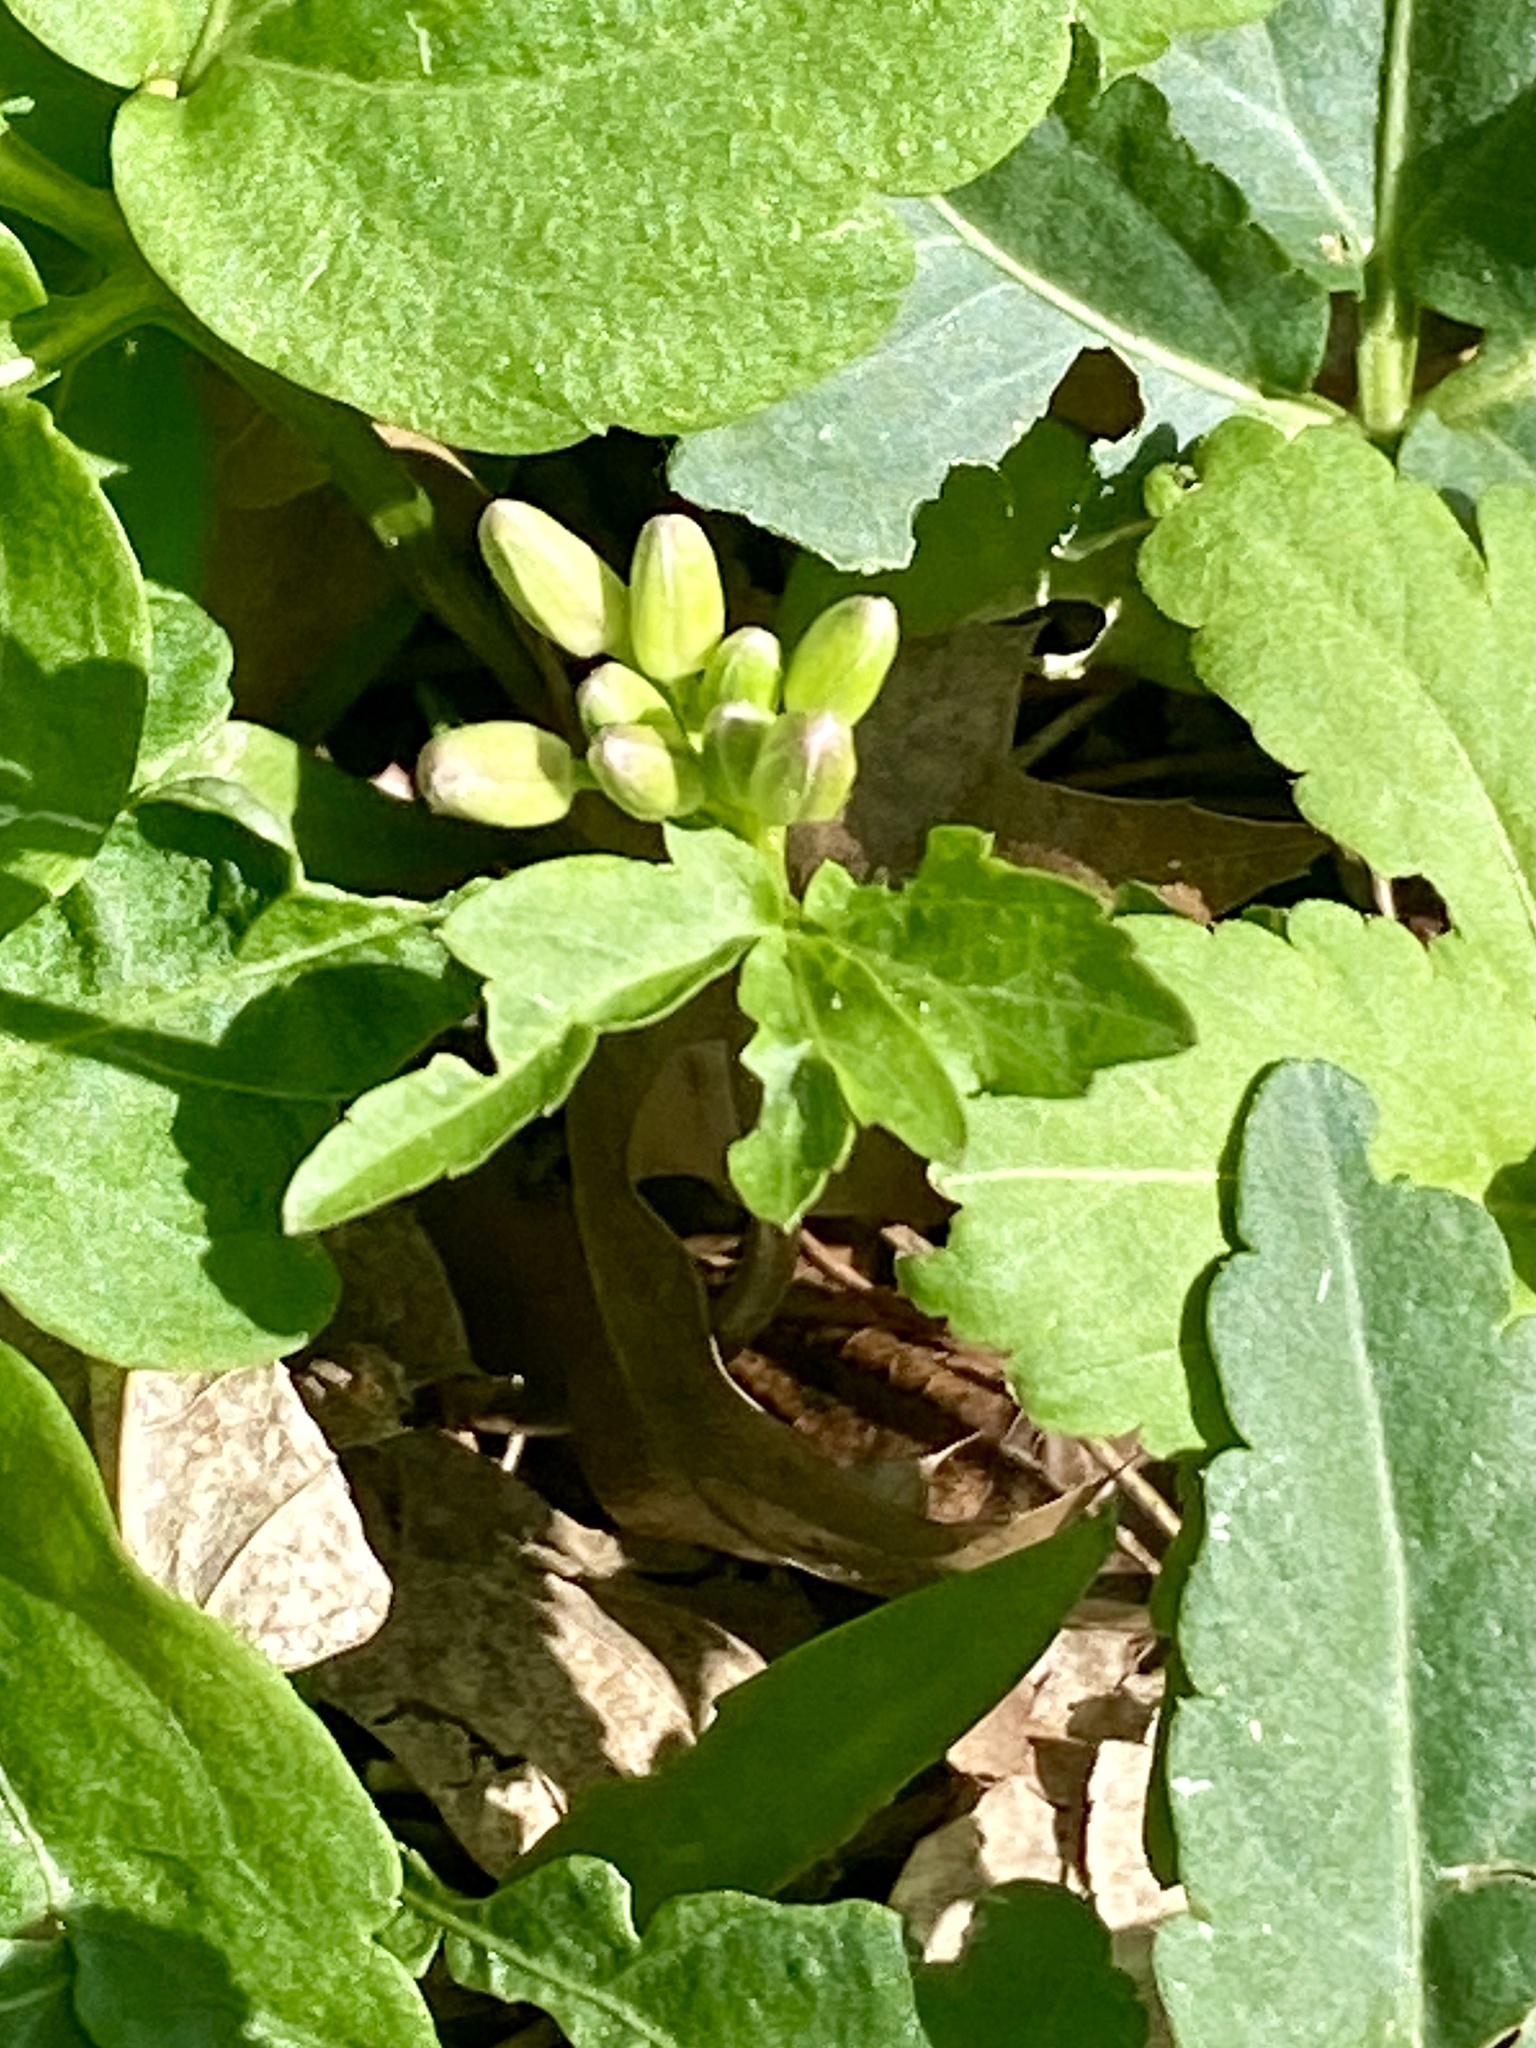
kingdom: Plantae
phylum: Tracheophyta
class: Magnoliopsida
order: Brassicales
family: Brassicaceae
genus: Cardamine
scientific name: Cardamine diphylla
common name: Broad-leaved toothwort
